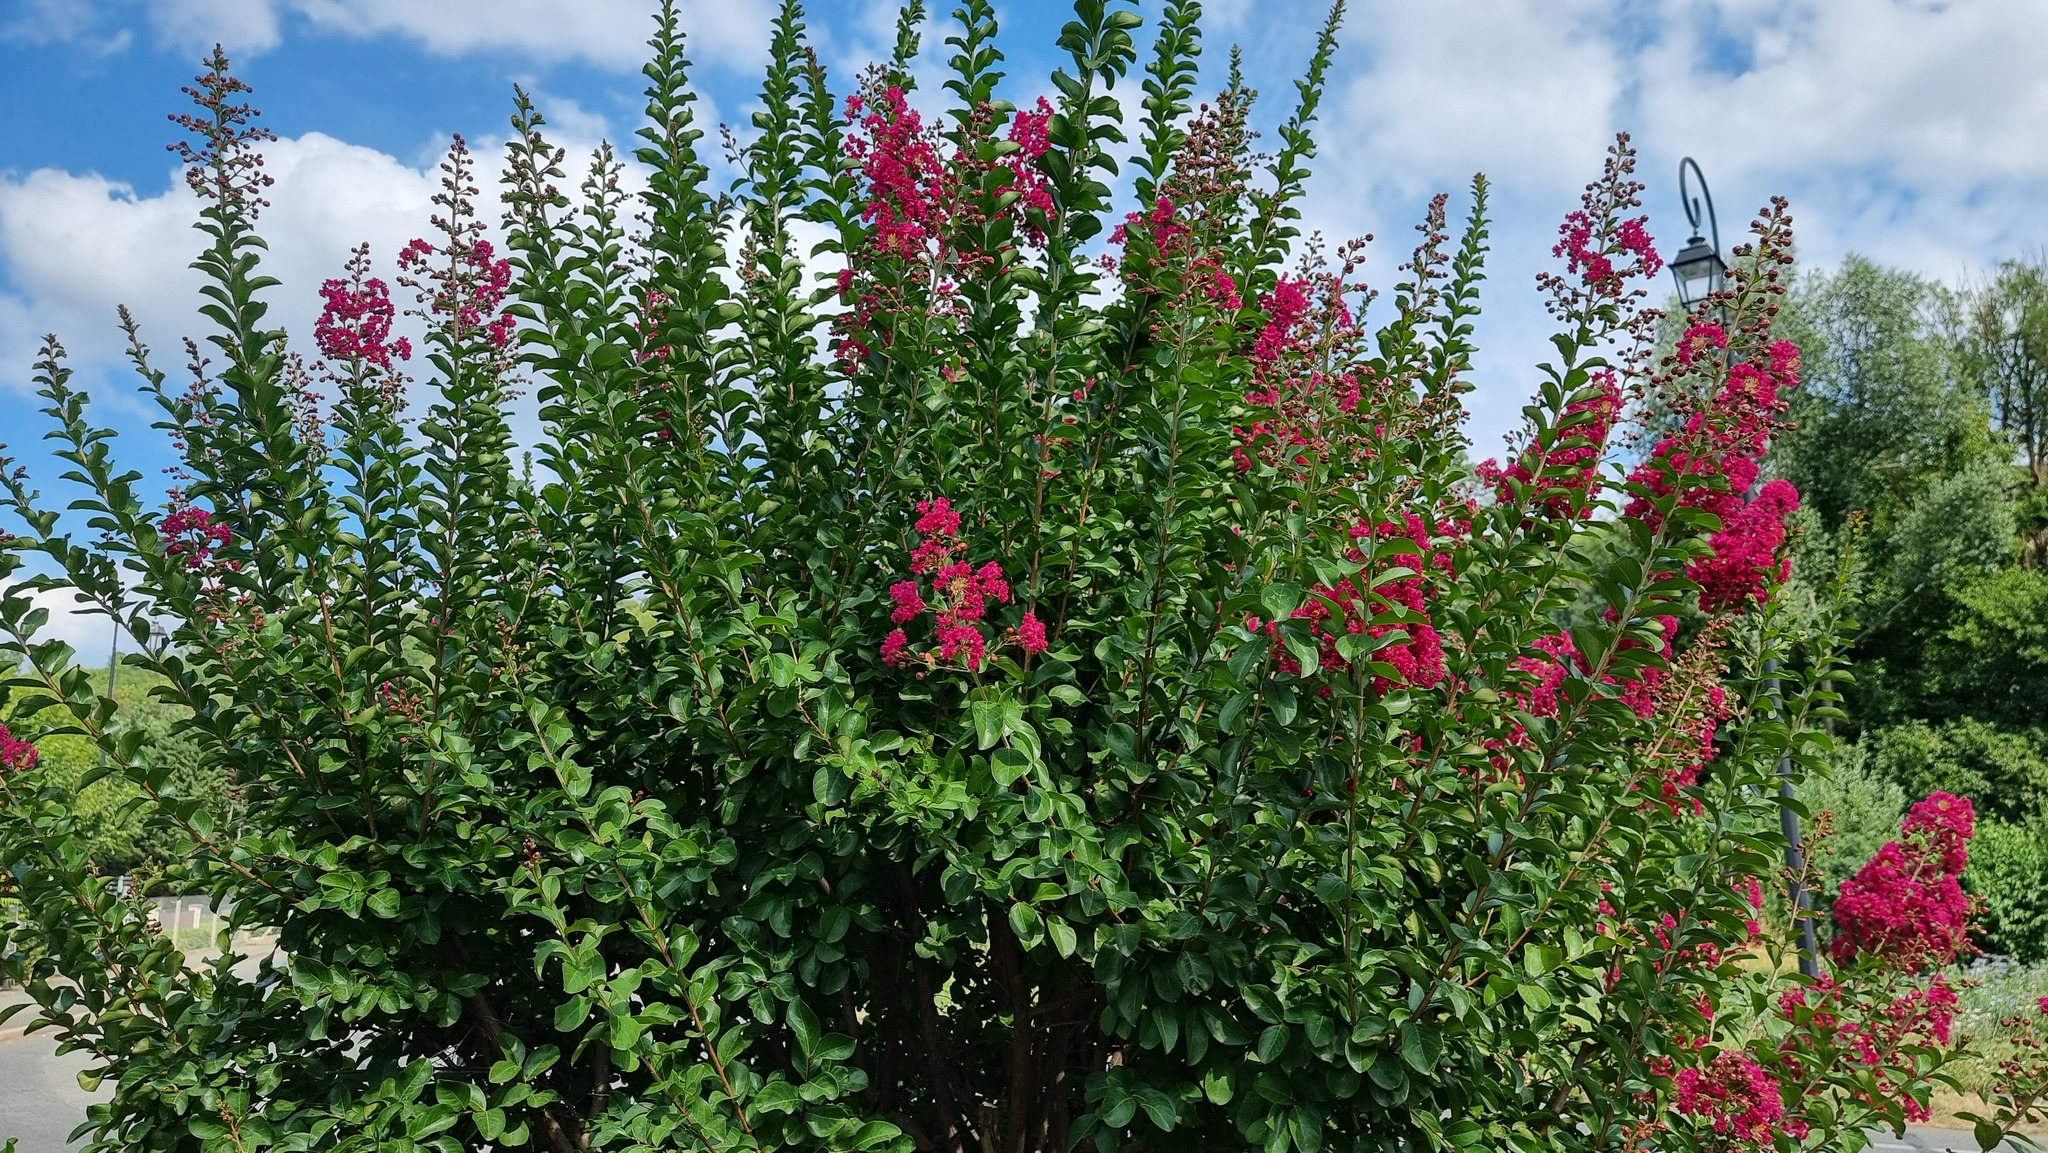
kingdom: Plantae
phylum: Tracheophyta
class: Magnoliopsida
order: Myrtales
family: Lythraceae
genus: Lagerstroemia
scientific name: Lagerstroemia indica
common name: Crape-myrtle
